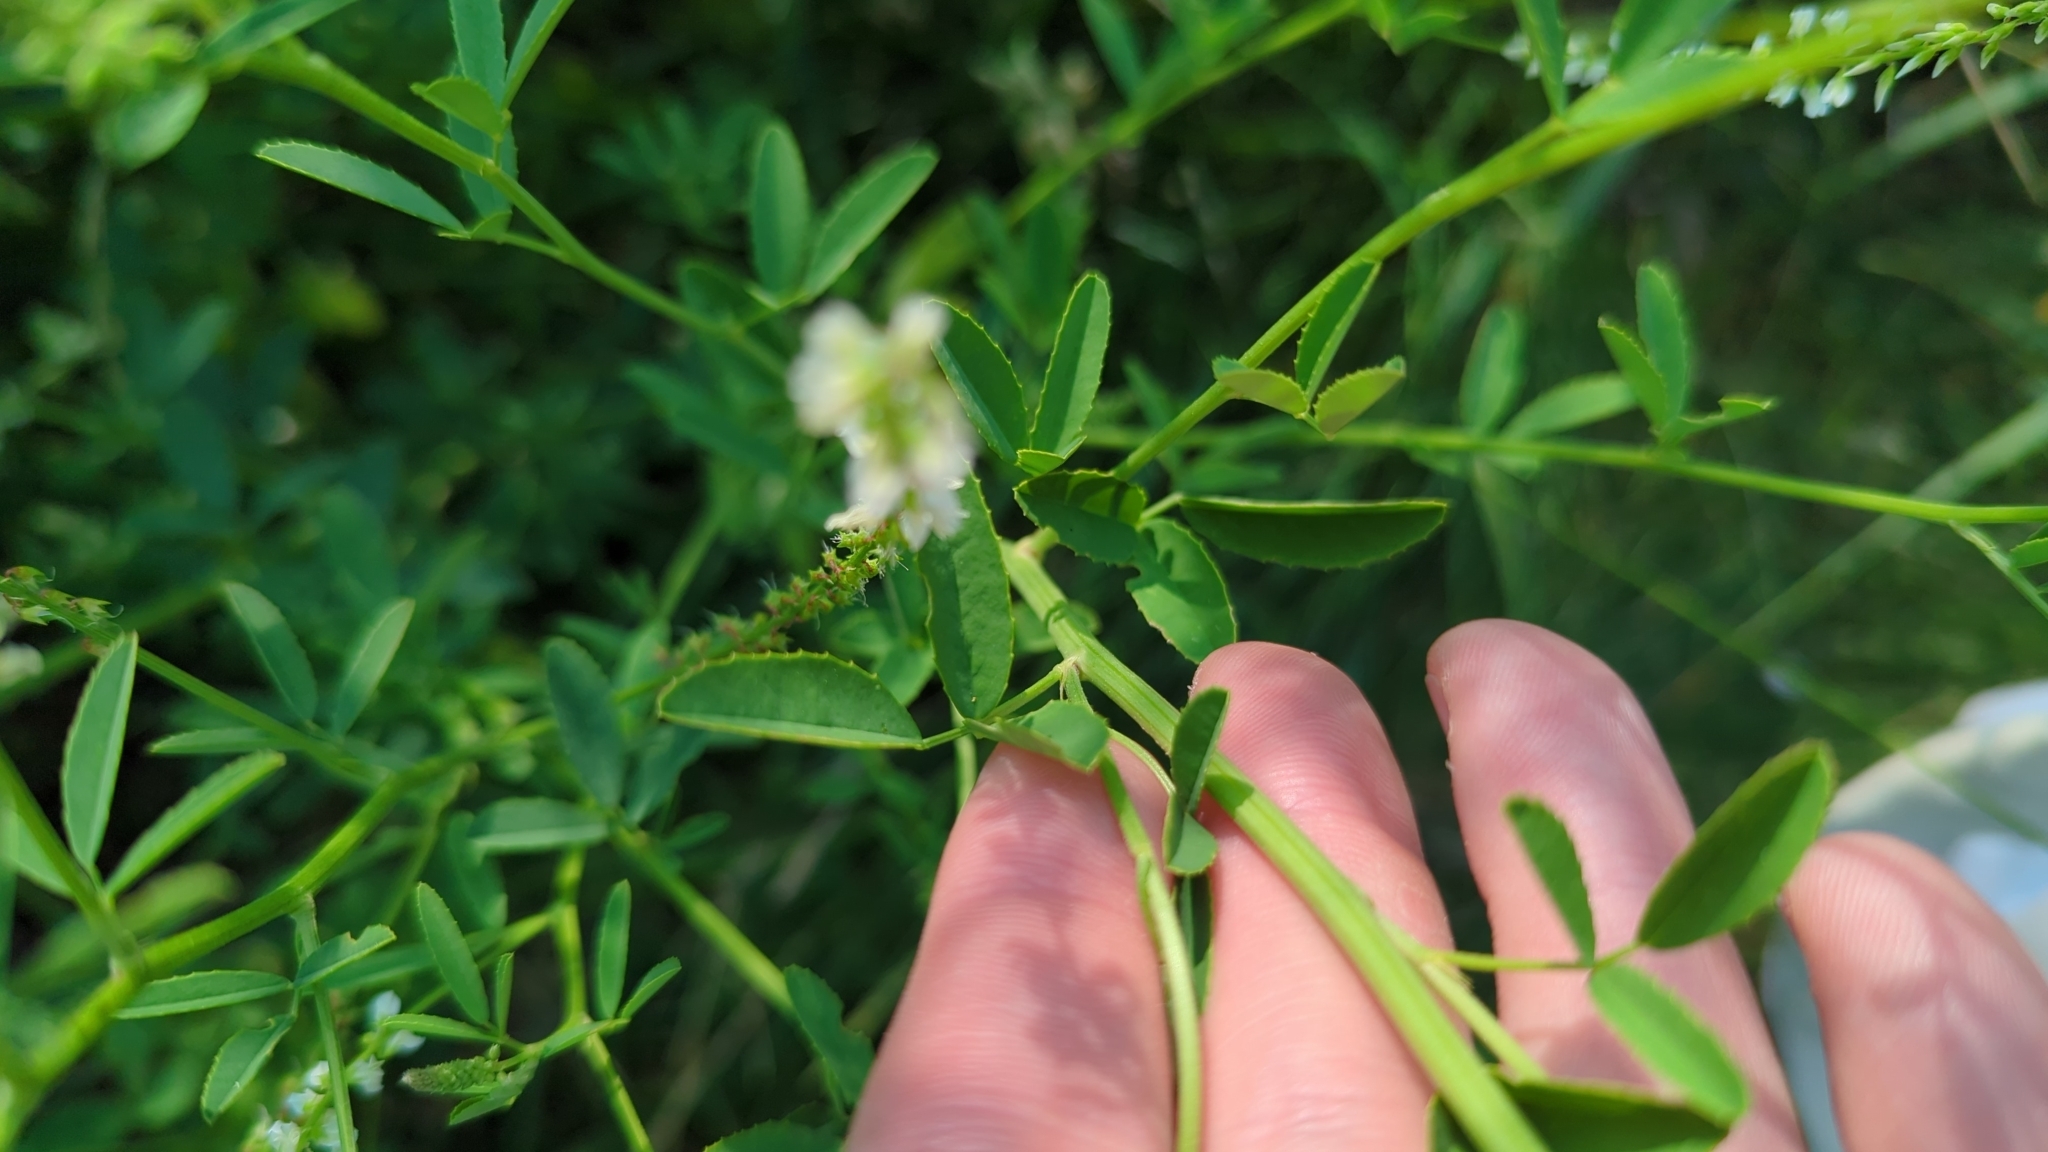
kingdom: Plantae
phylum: Tracheophyta
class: Magnoliopsida
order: Fabales
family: Fabaceae
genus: Melilotus
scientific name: Melilotus albus
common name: White melilot
